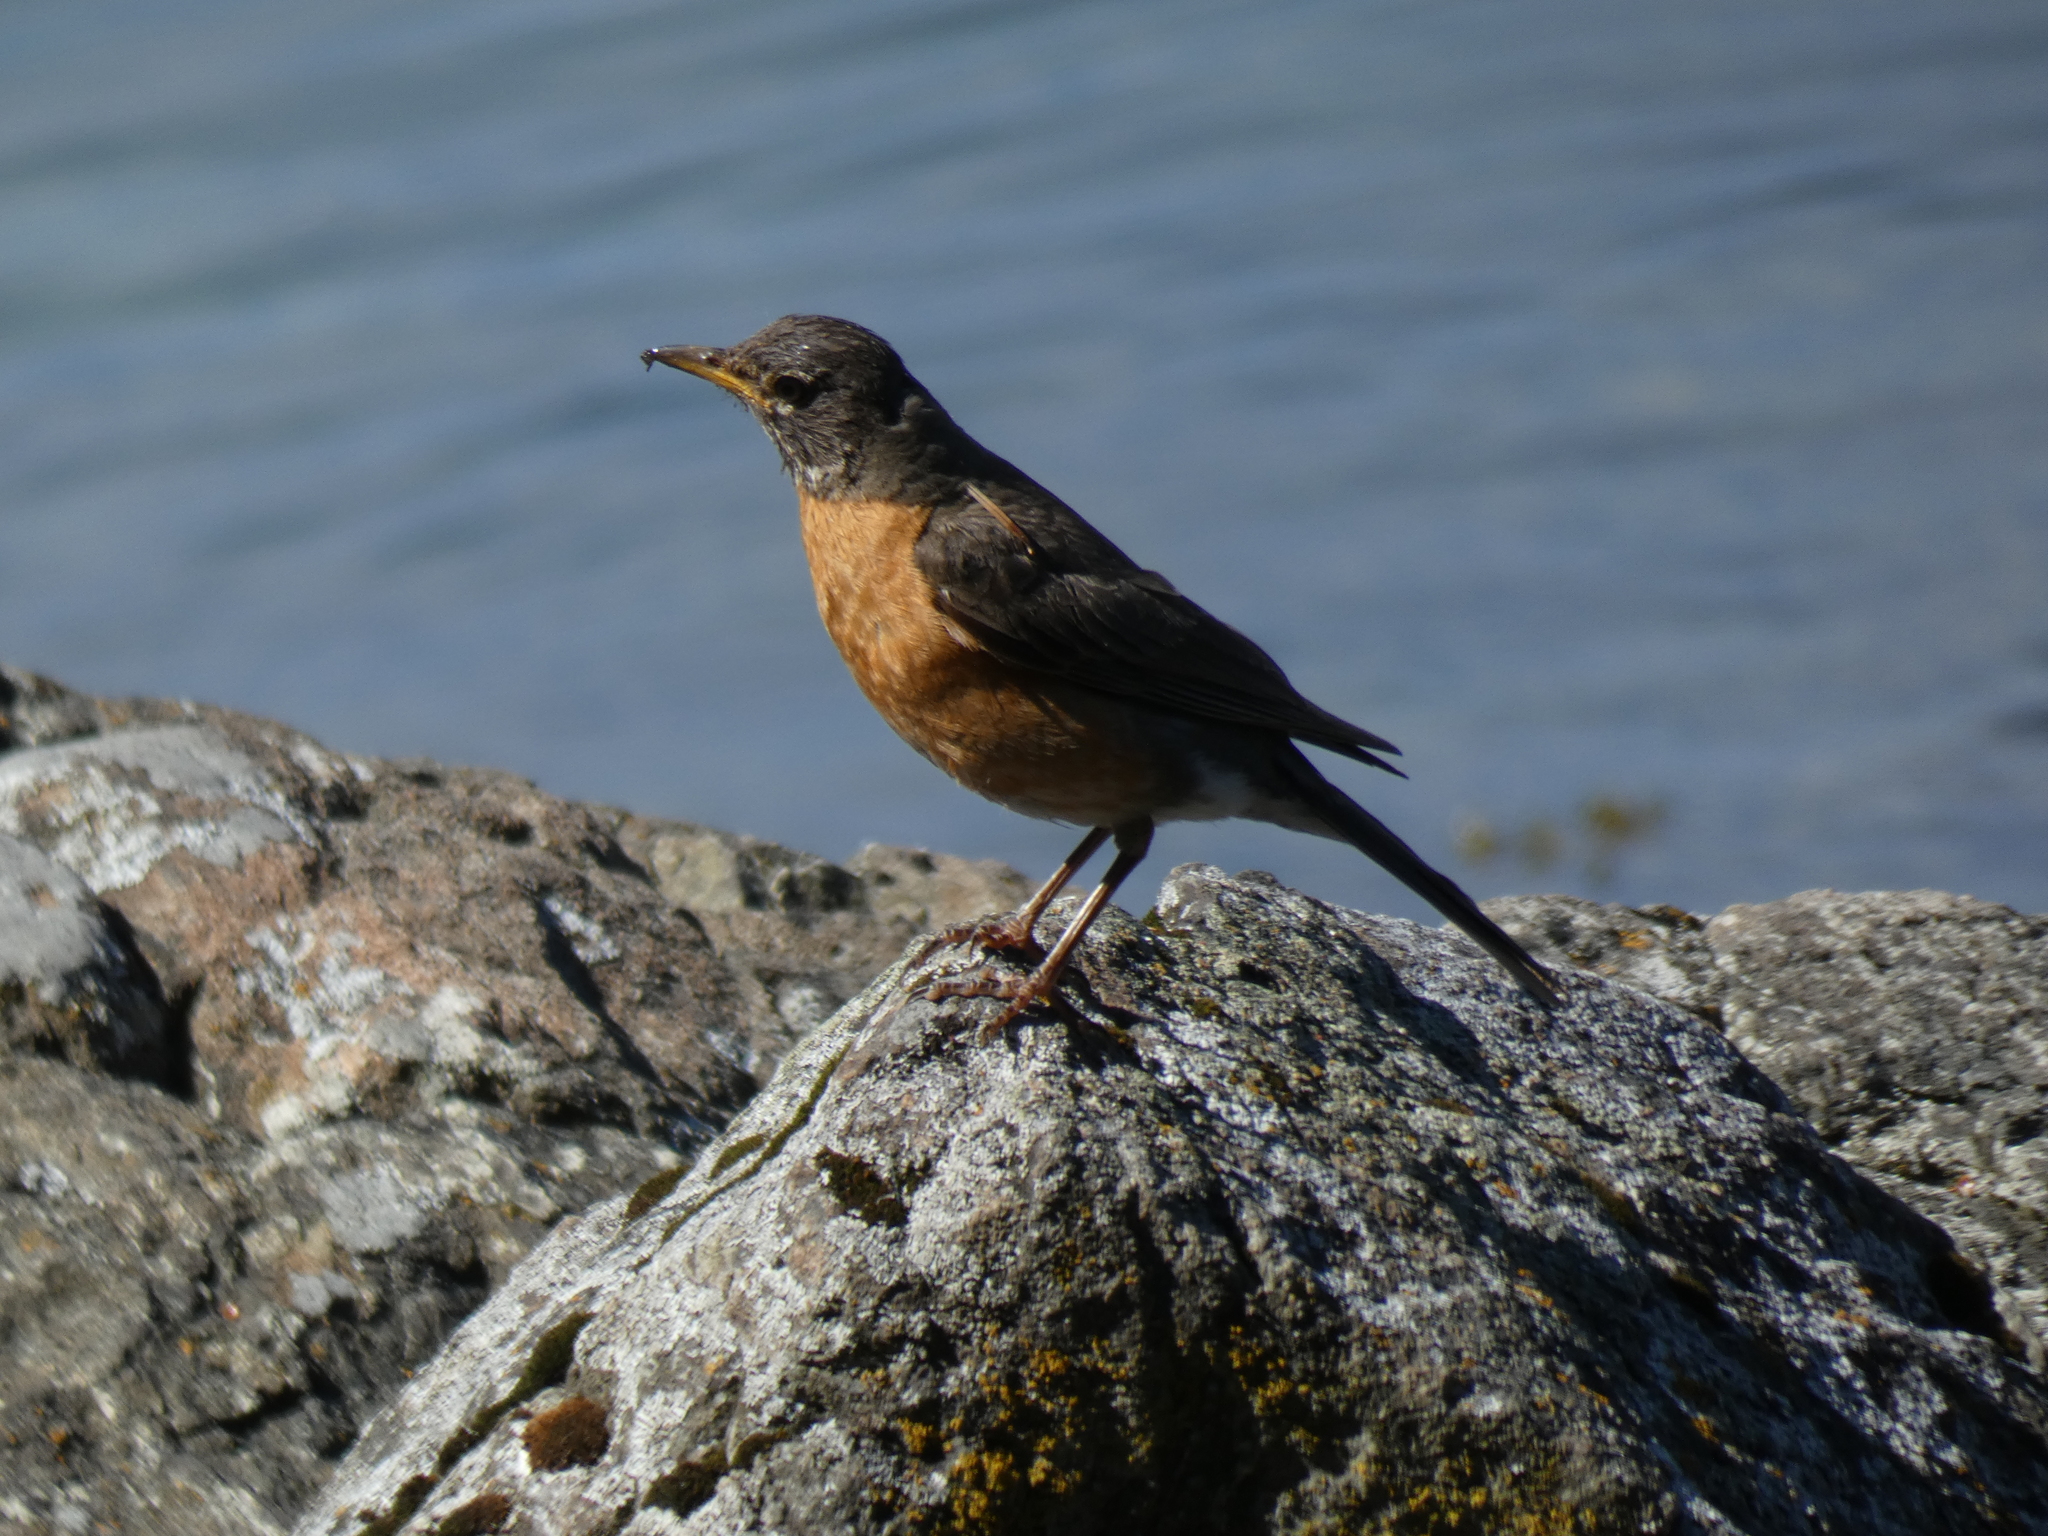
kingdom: Animalia
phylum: Chordata
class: Aves
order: Passeriformes
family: Turdidae
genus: Turdus
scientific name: Turdus migratorius
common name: American robin
